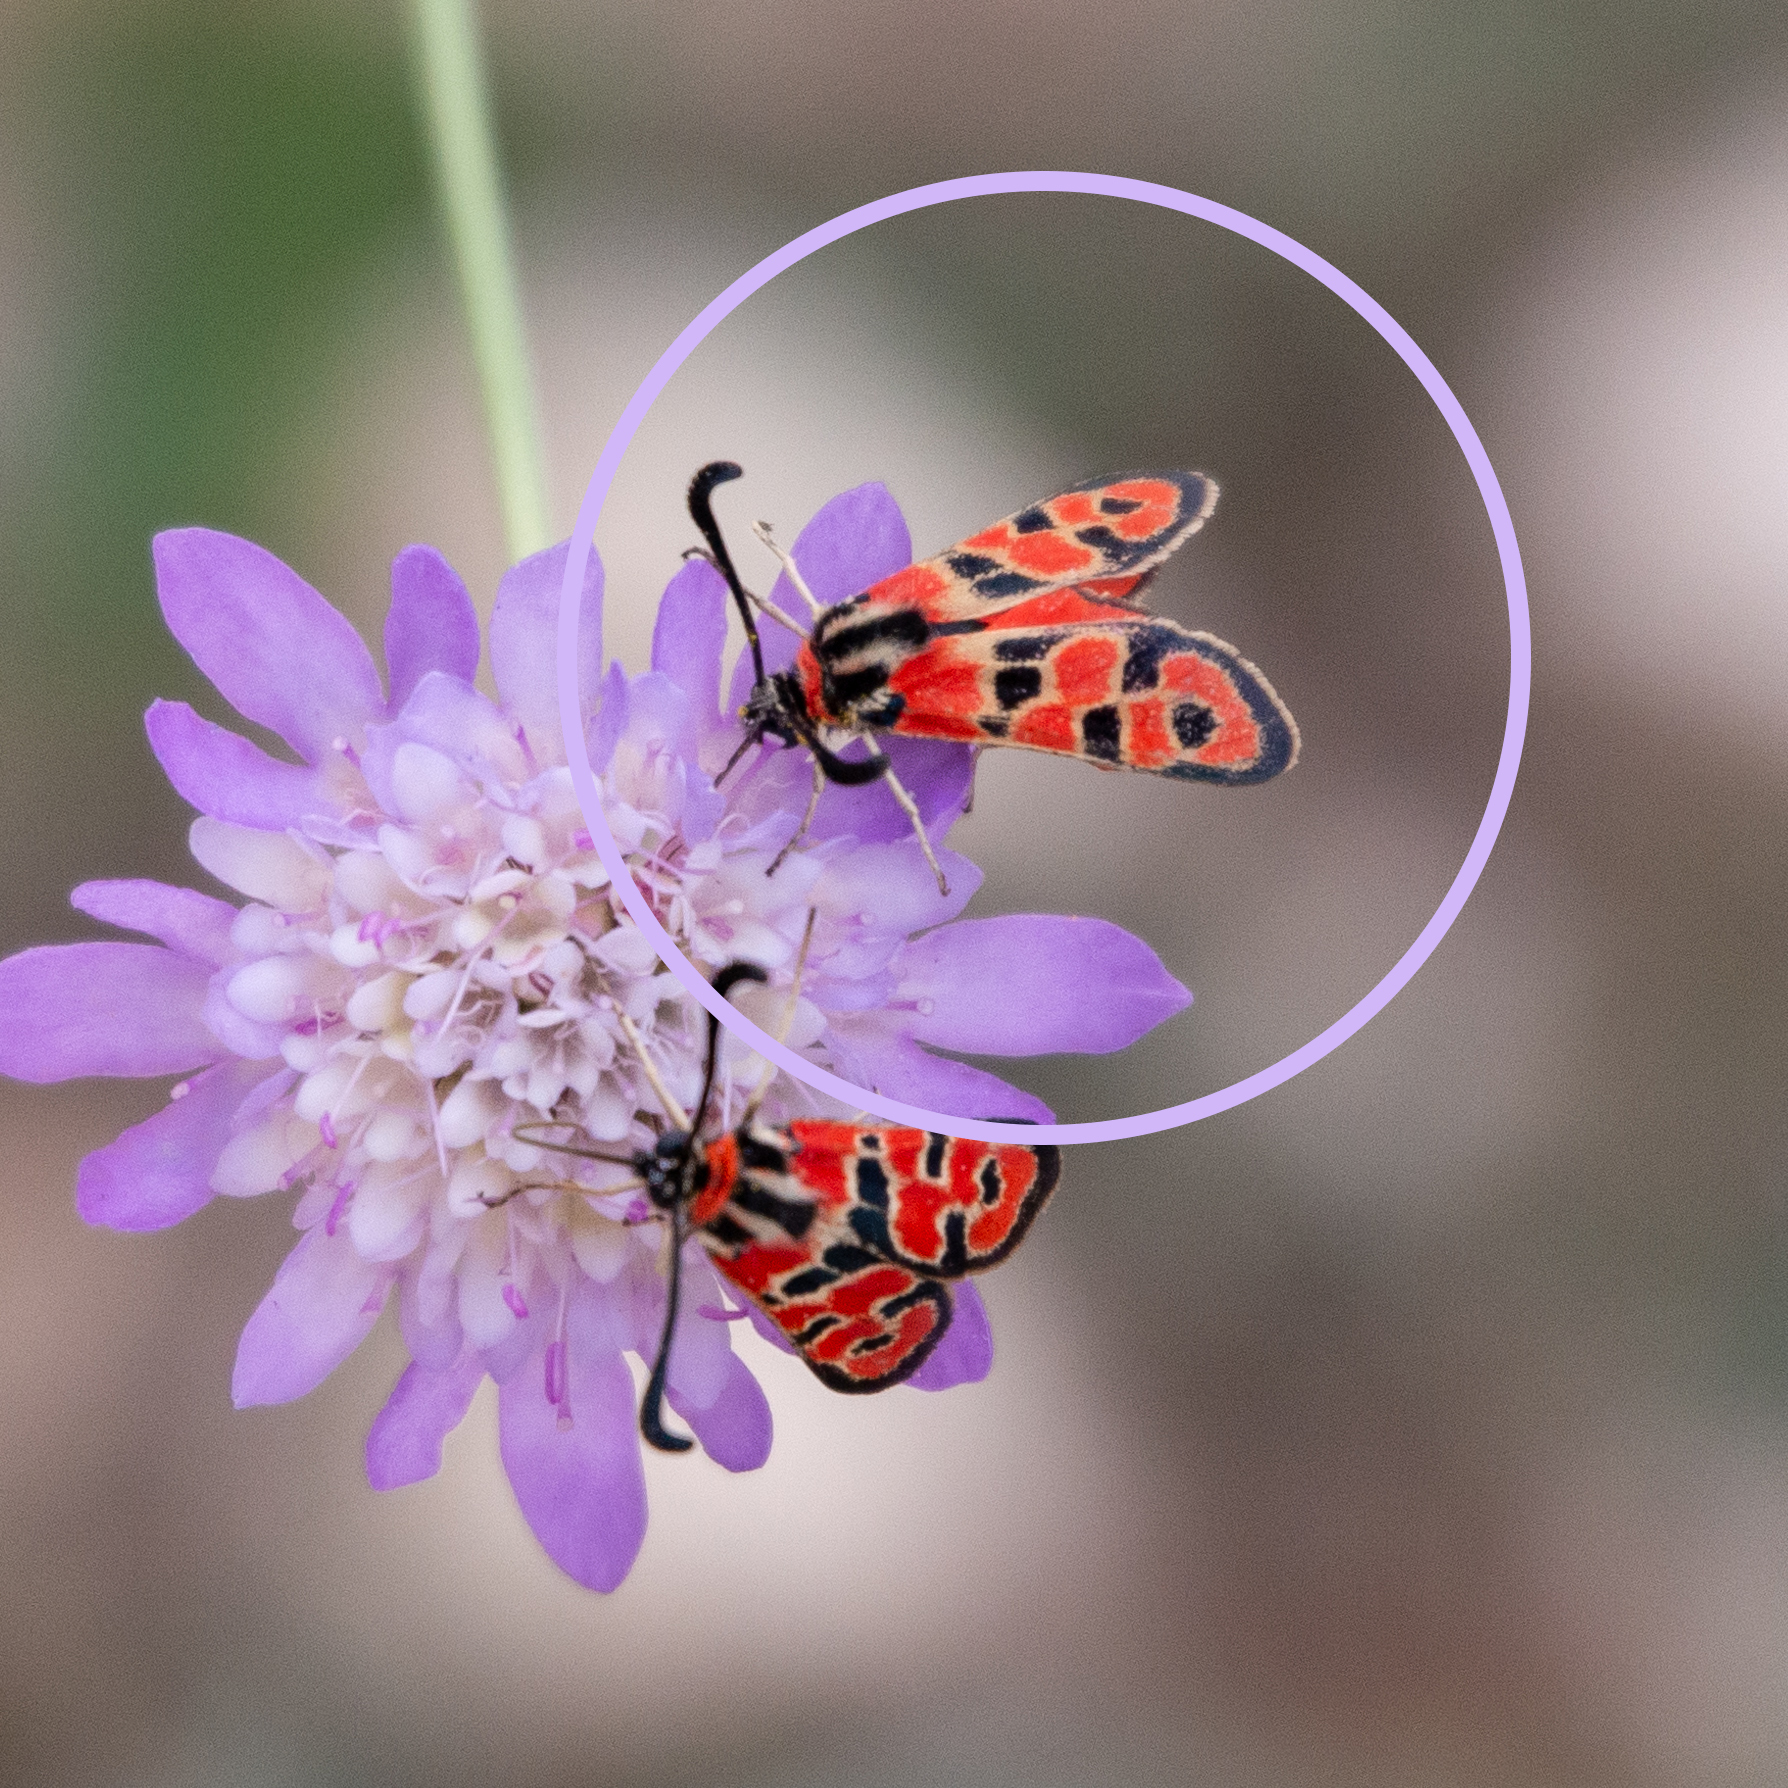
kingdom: Animalia
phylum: Arthropoda
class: Insecta
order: Lepidoptera
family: Zygaenidae
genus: Zygaena
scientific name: Zygaena fausta
